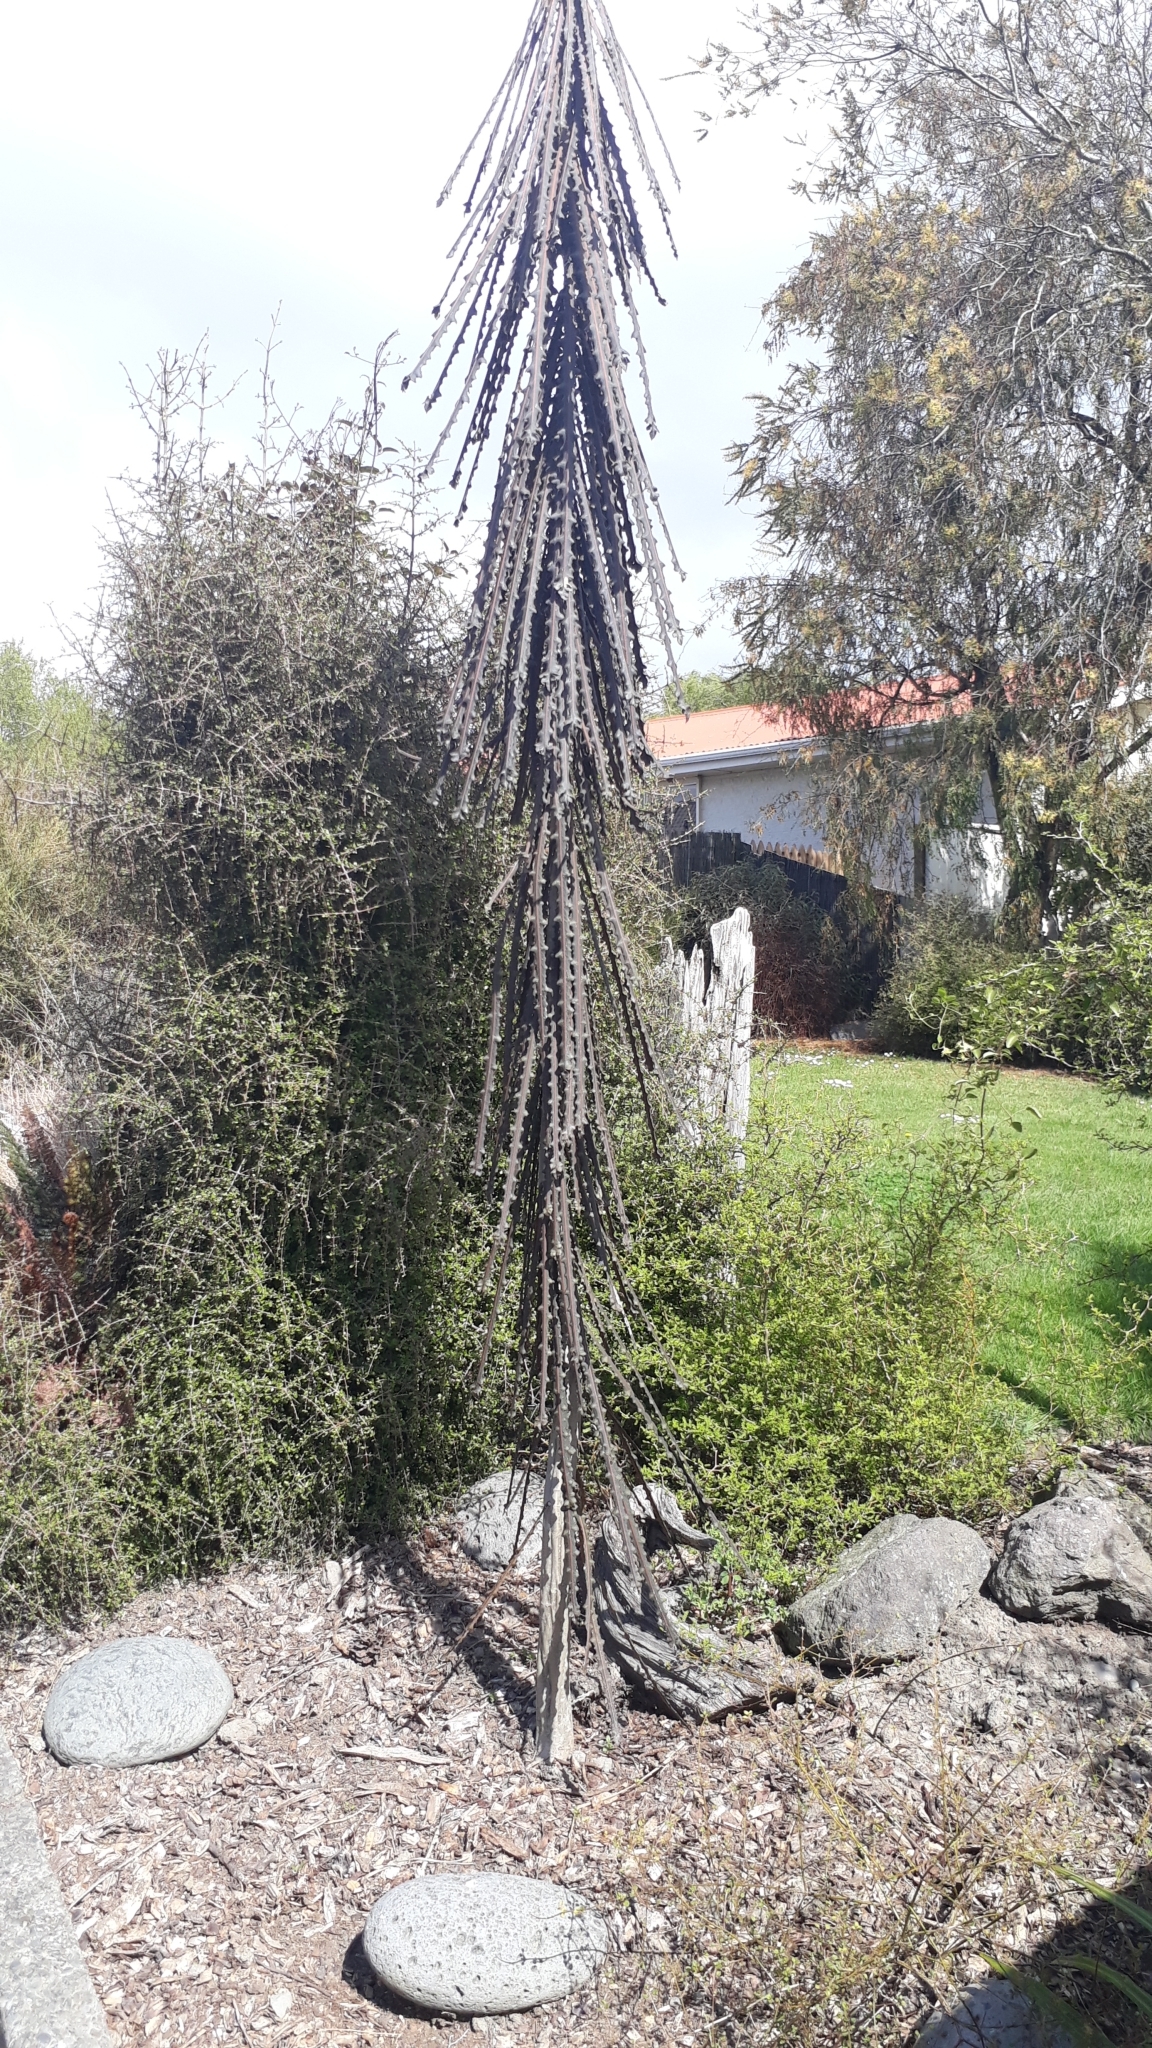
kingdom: Plantae
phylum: Tracheophyta
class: Magnoliopsida
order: Apiales
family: Araliaceae
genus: Pseudopanax
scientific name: Pseudopanax ferox
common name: Fierce lancewood
